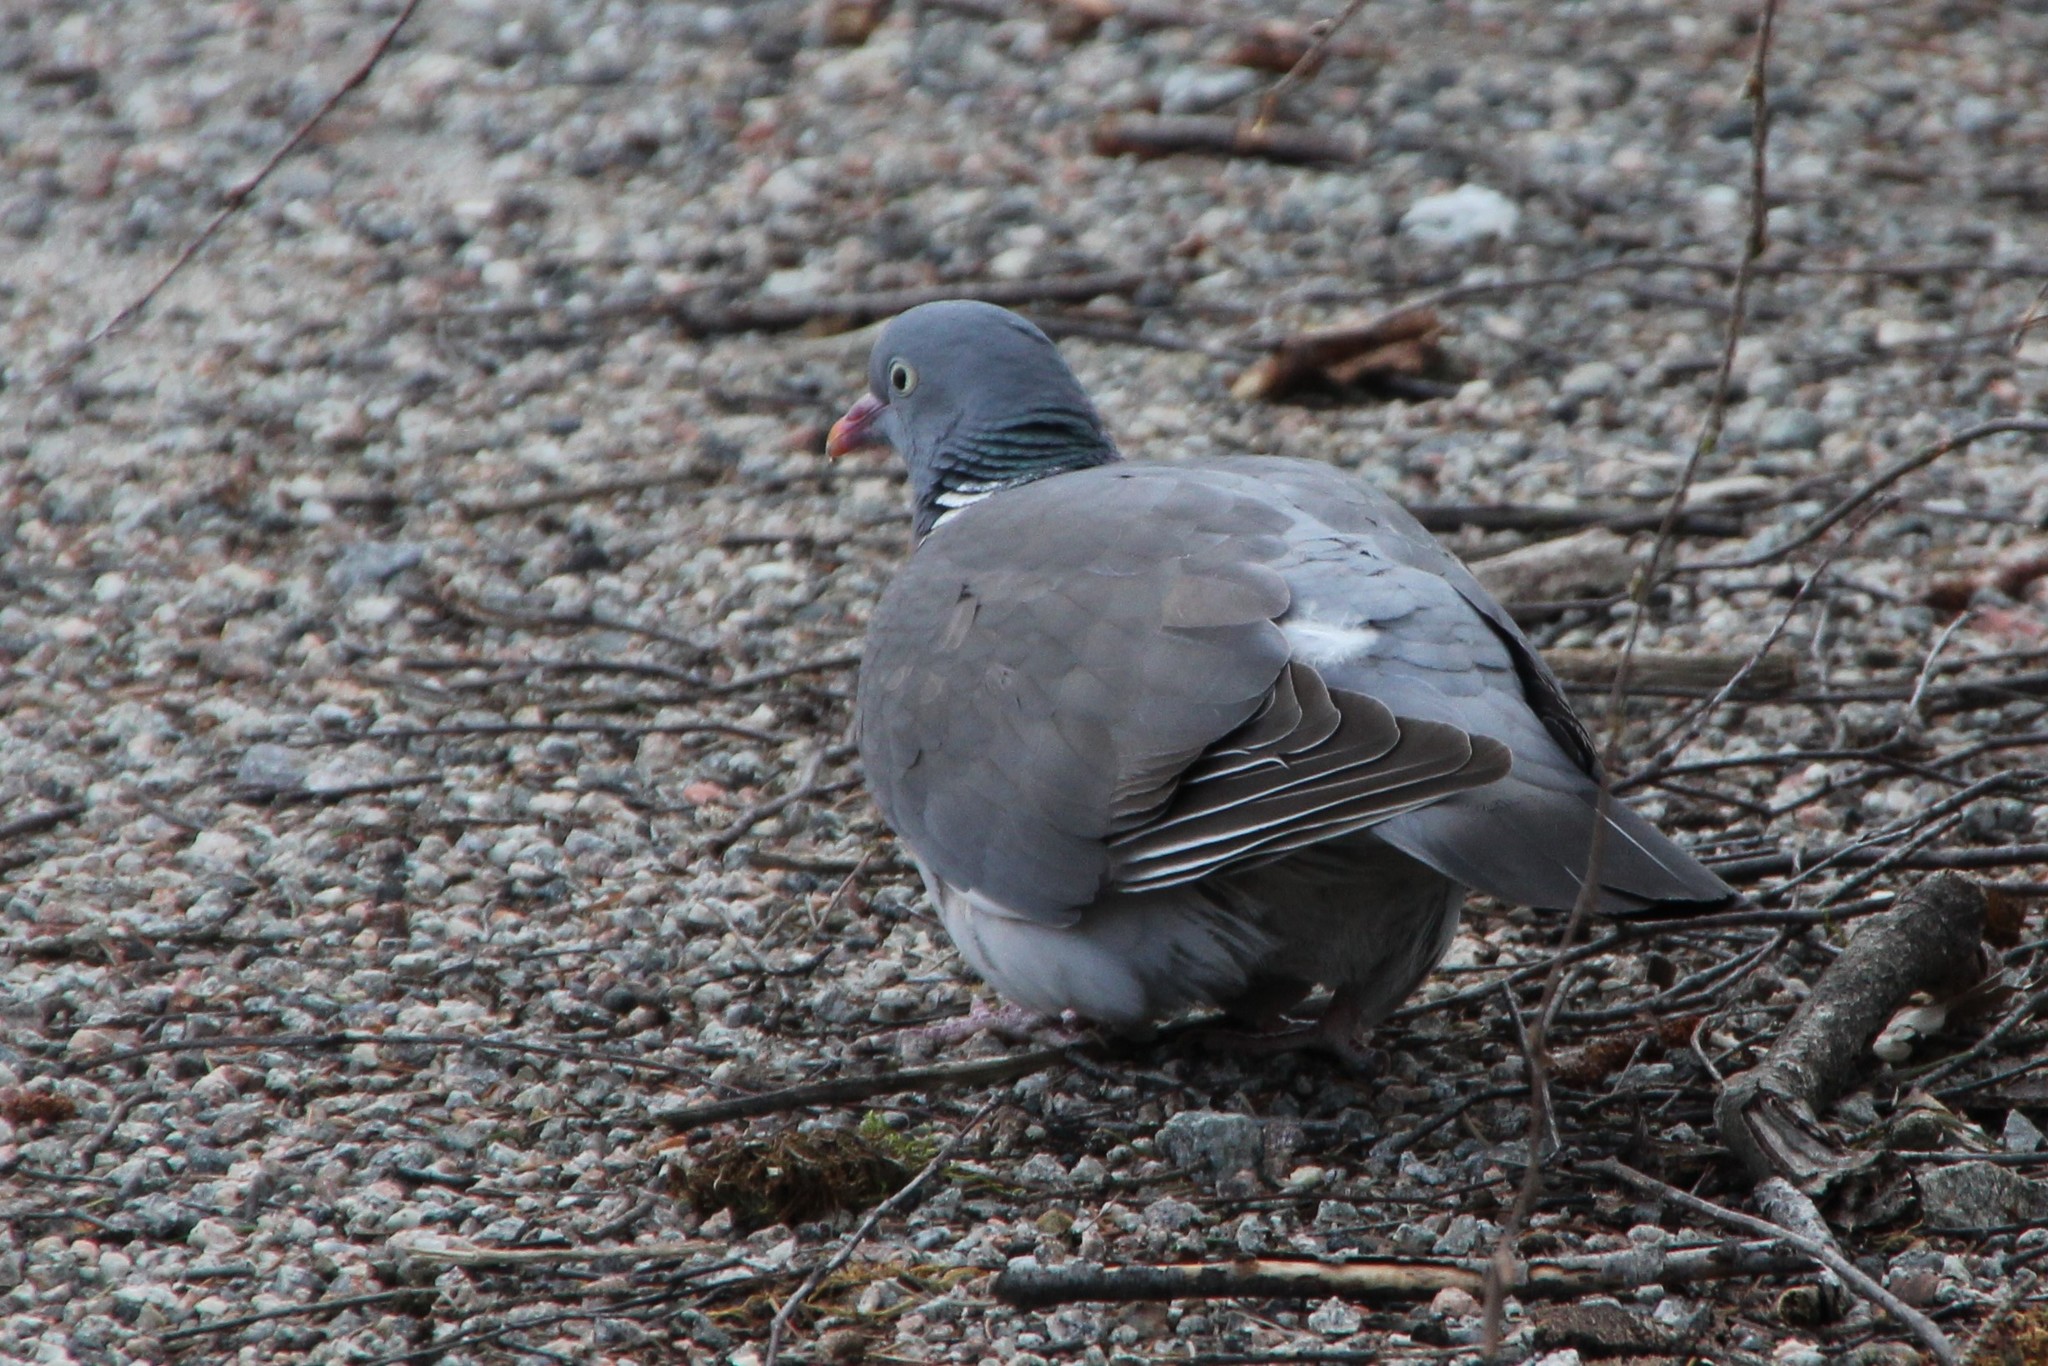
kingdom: Animalia
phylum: Chordata
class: Aves
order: Columbiformes
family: Columbidae
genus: Columba
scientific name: Columba palumbus
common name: Common wood pigeon
